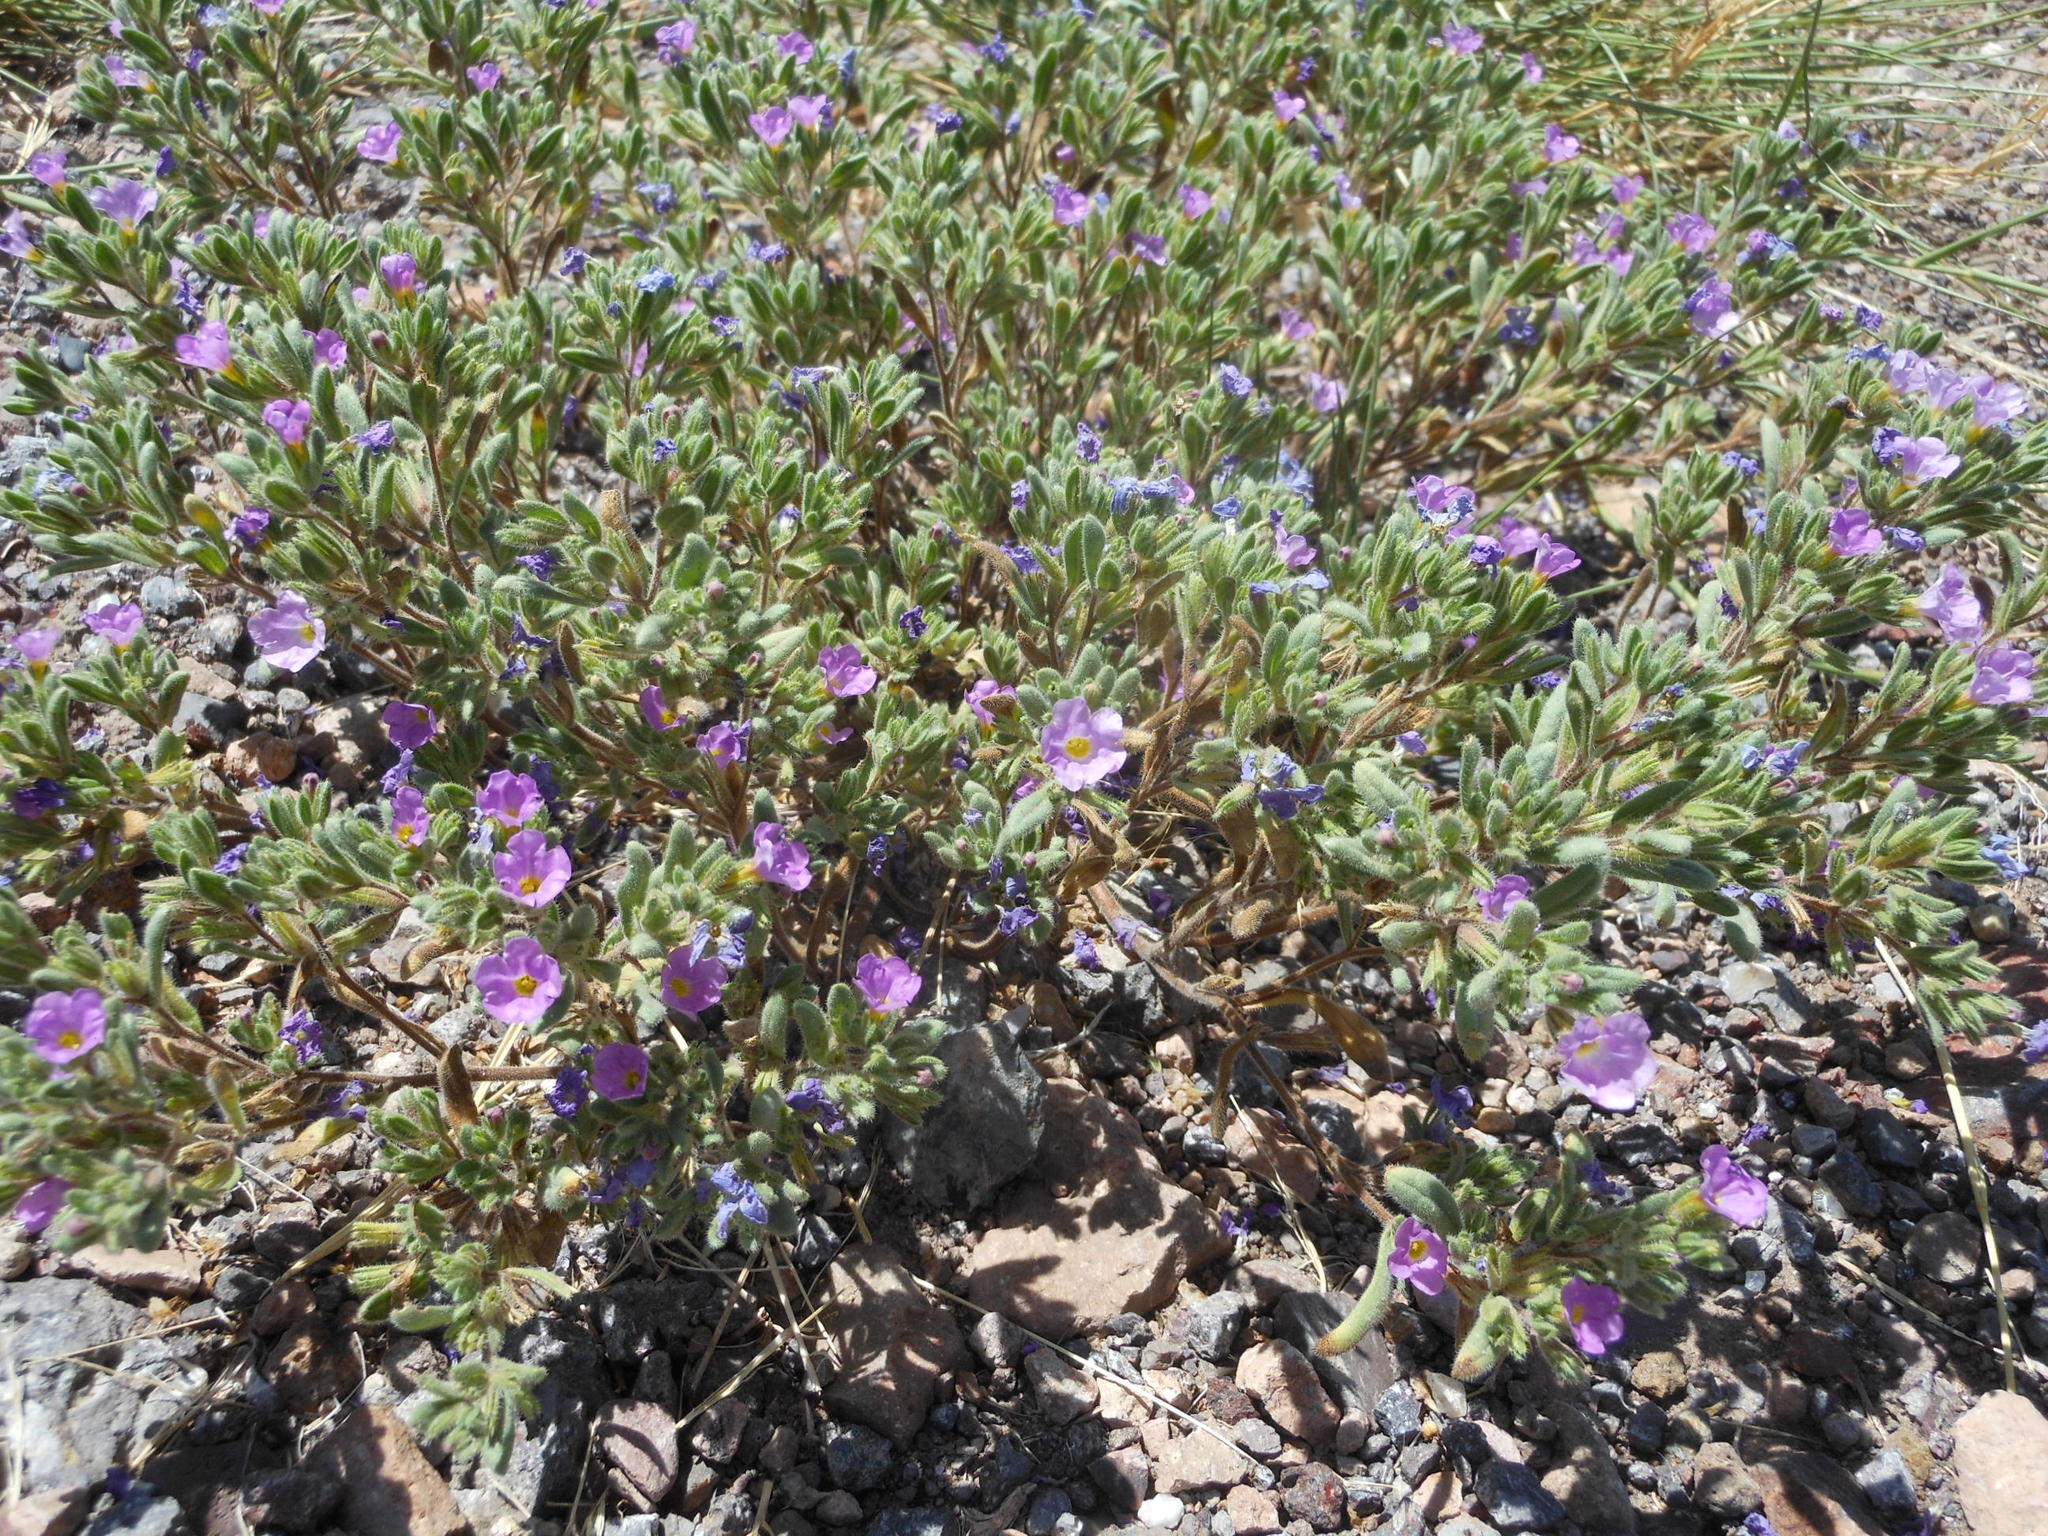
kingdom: Plantae
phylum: Tracheophyta
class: Magnoliopsida
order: Boraginales
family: Namaceae
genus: Nama
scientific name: Nama hispida
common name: Bristly nama
